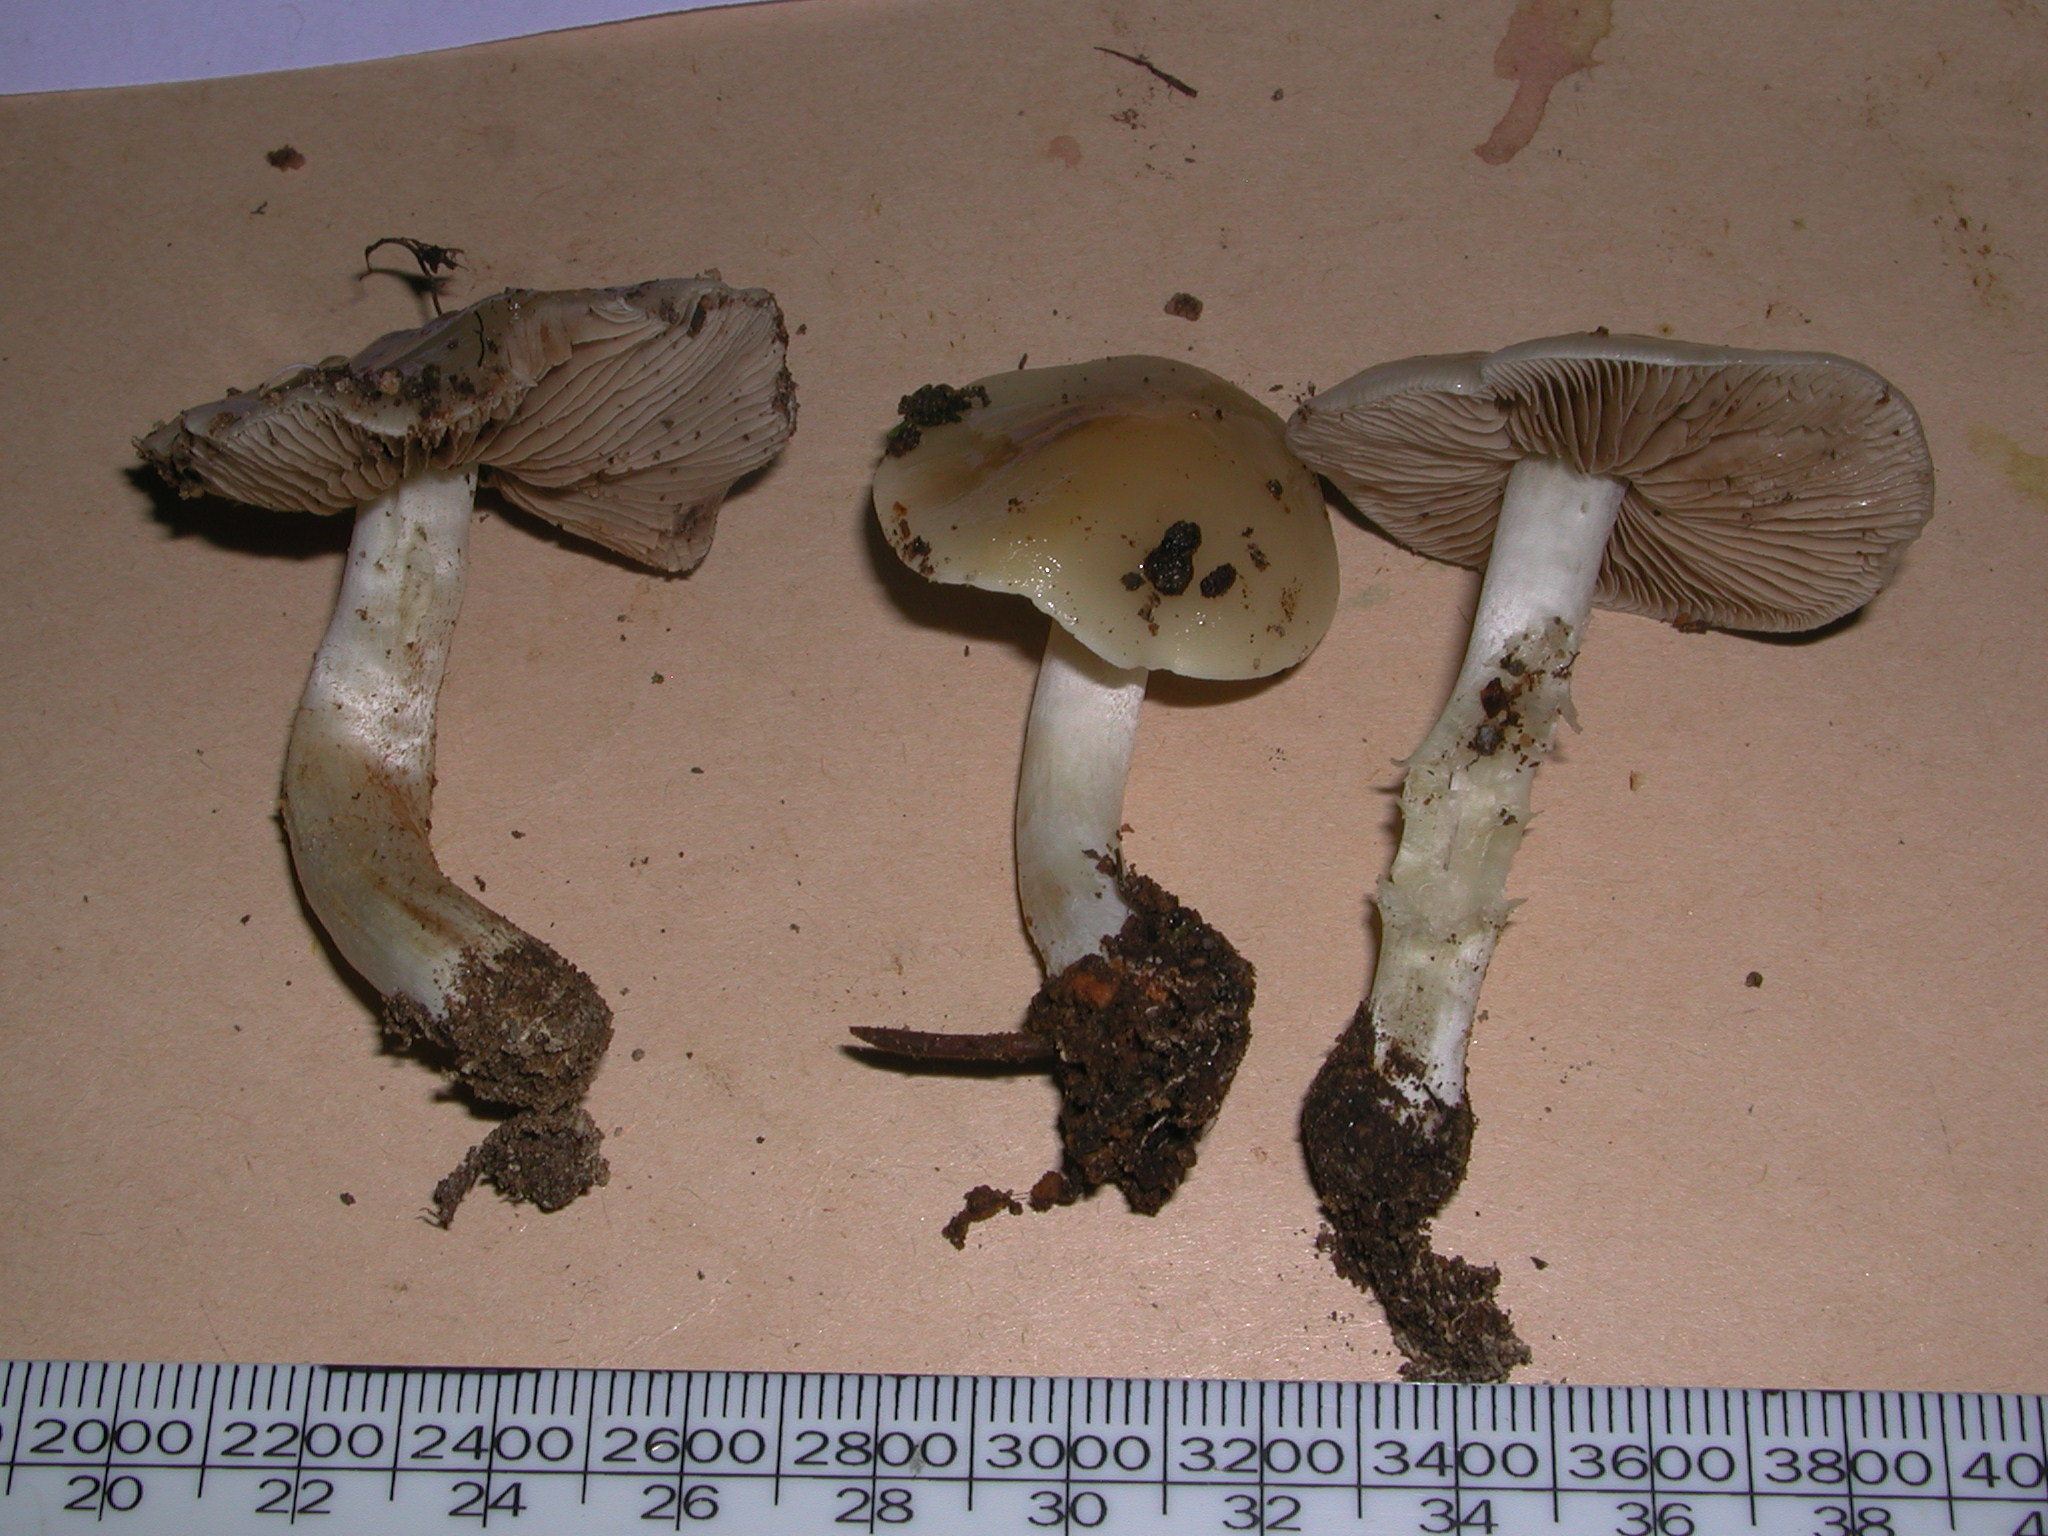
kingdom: Fungi
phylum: Basidiomycota
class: Agaricomycetes
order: Agaricales
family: Hymenogastraceae
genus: Psathyloma
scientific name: Psathyloma leucocarpum
